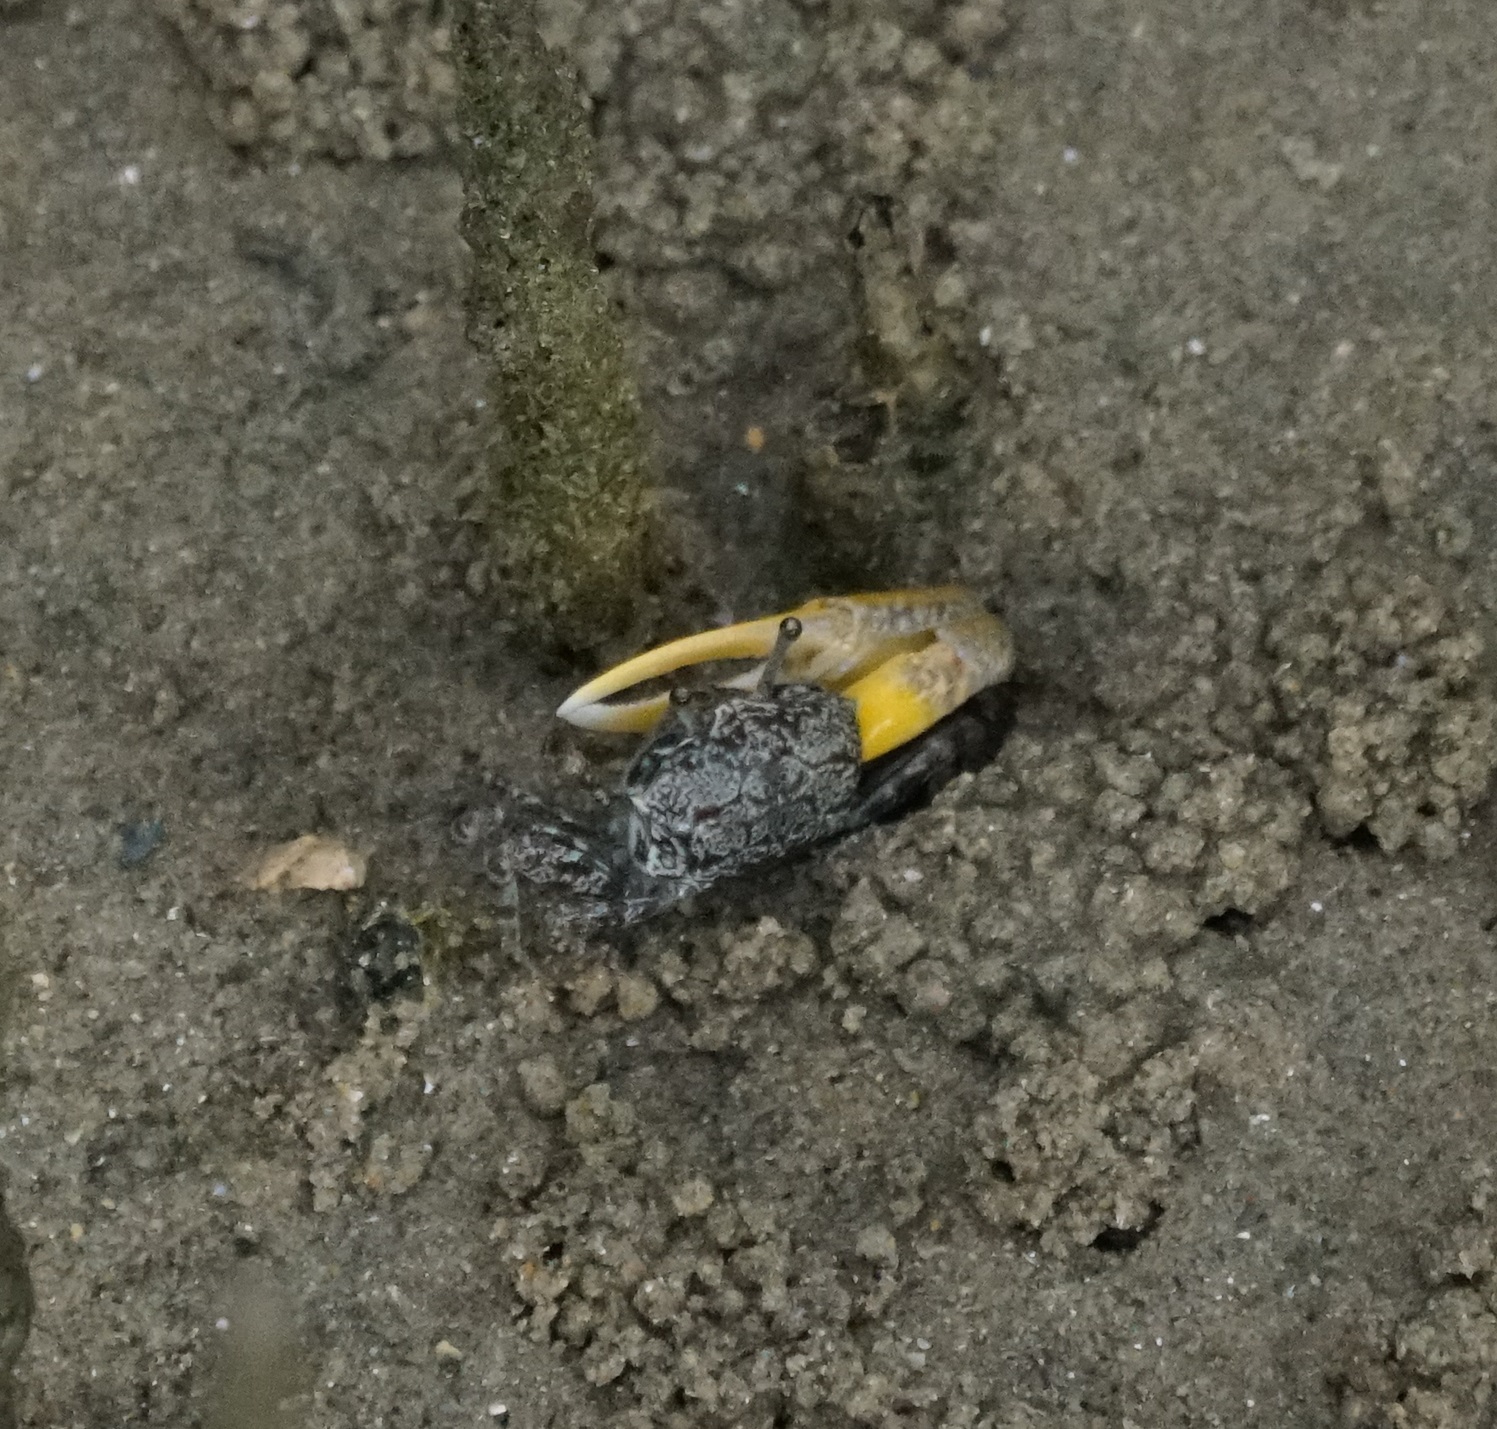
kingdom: Animalia
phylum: Arthropoda
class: Malacostraca
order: Decapoda
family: Ocypodidae
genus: Austruca
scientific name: Austruca perplexa
